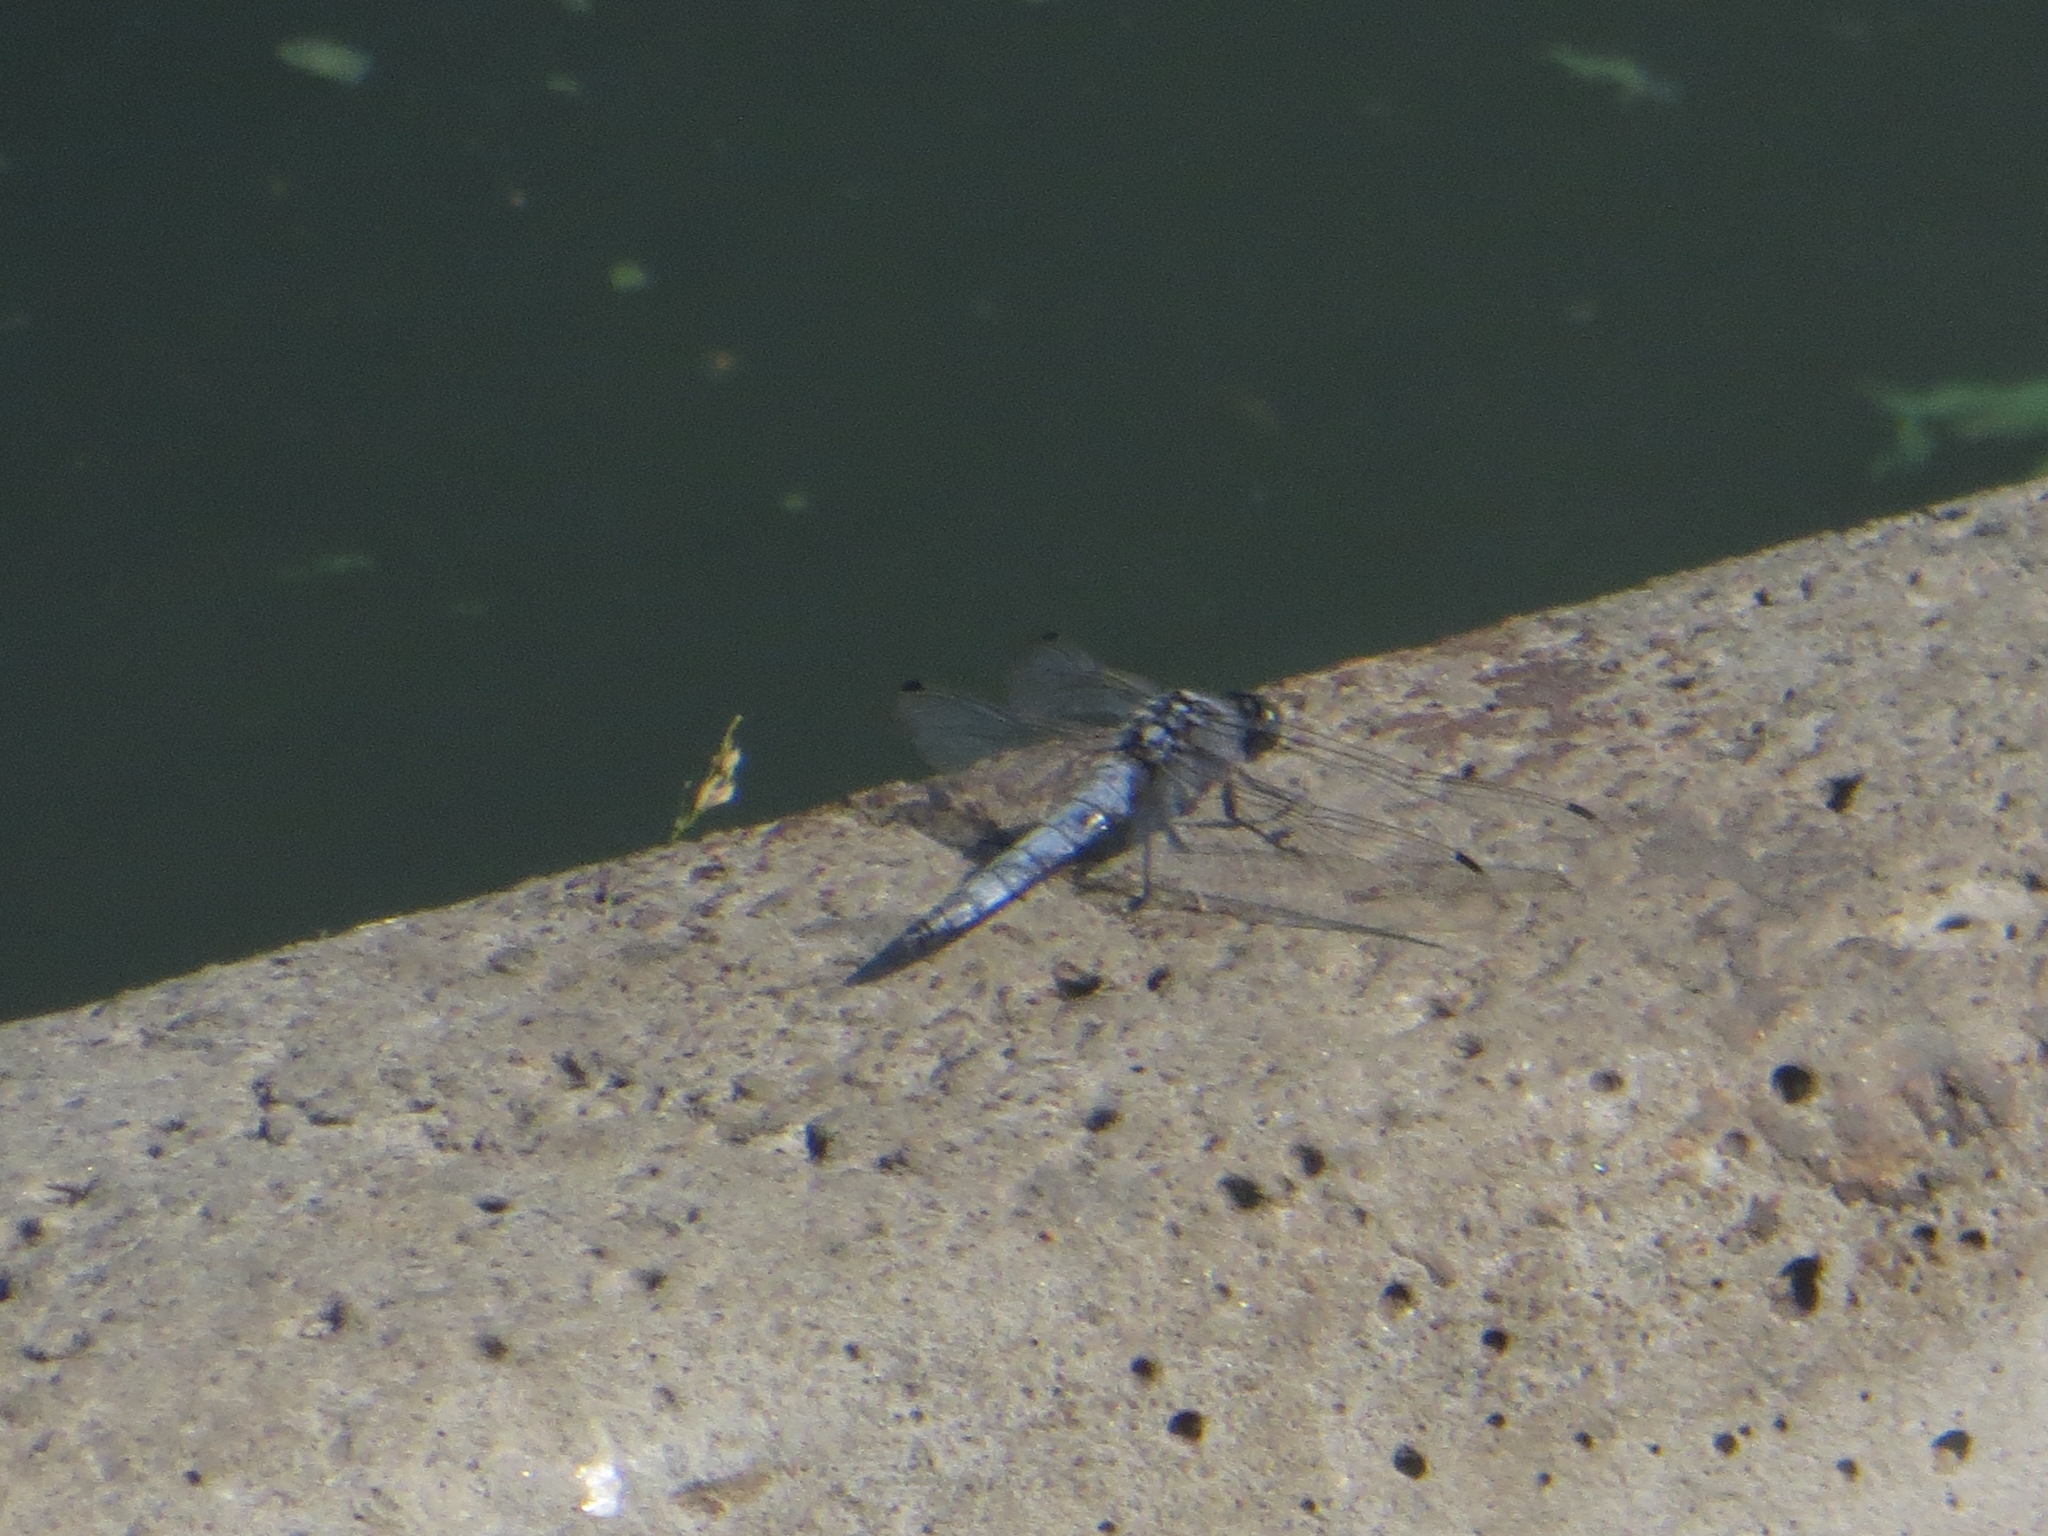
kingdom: Animalia
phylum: Arthropoda
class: Insecta
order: Odonata
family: Libellulidae
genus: Orthetrum
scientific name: Orthetrum cancellatum
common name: Black-tailed skimmer
